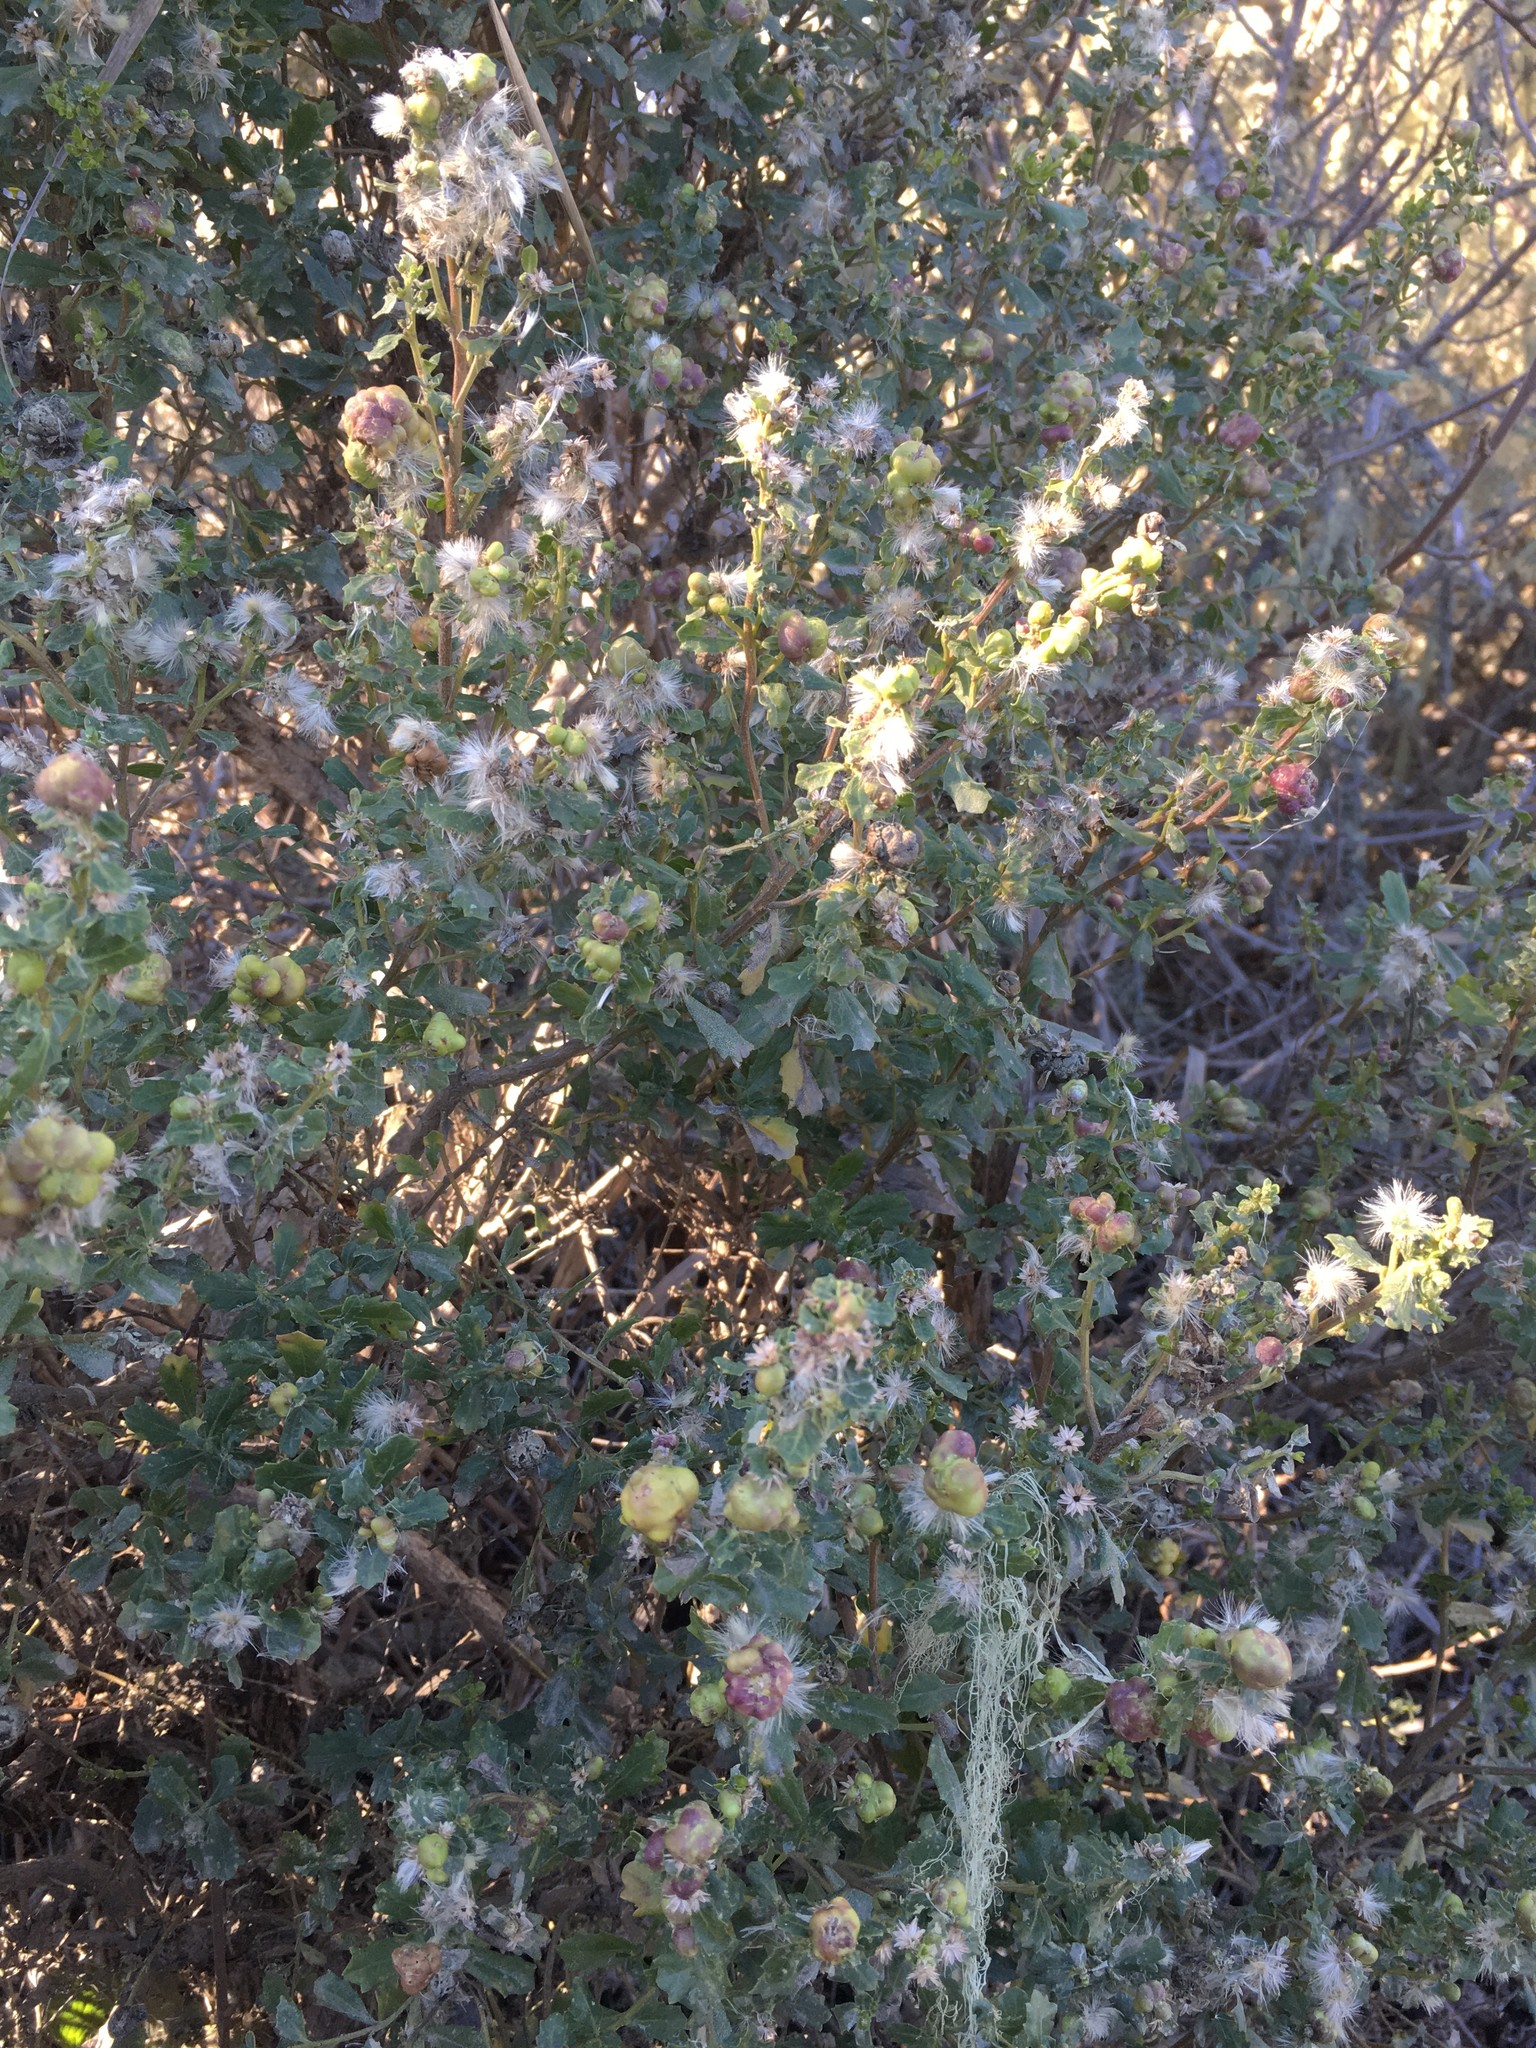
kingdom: Plantae
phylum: Tracheophyta
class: Magnoliopsida
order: Asterales
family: Asteraceae
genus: Baccharis
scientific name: Baccharis pilularis
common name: Coyotebrush
